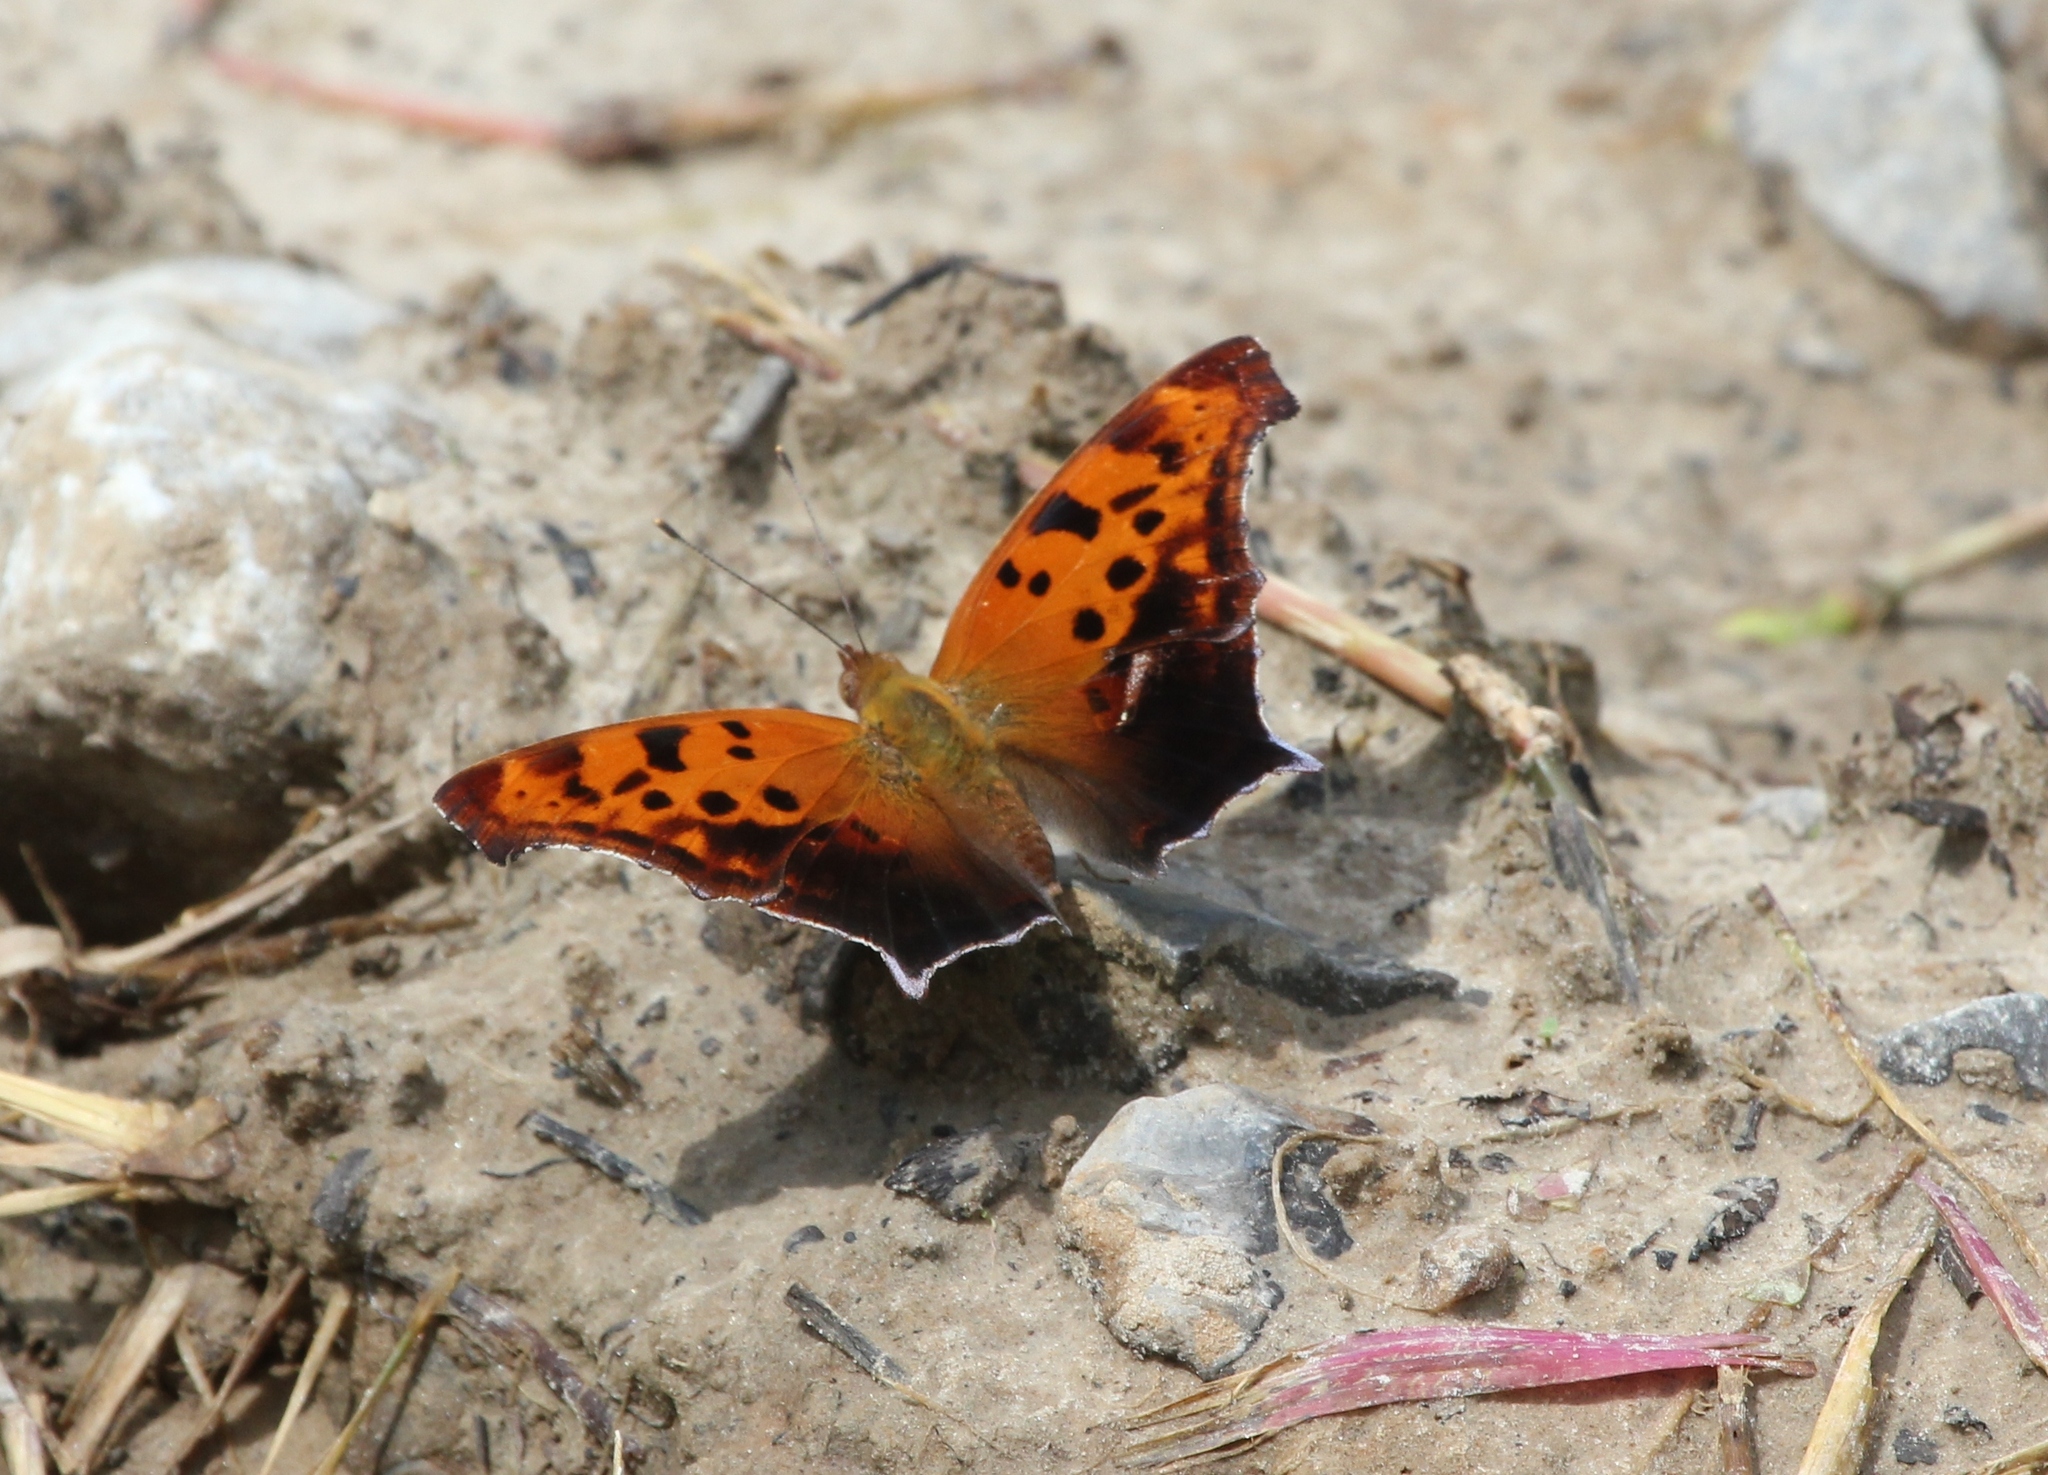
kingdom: Animalia
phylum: Arthropoda
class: Insecta
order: Lepidoptera
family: Nymphalidae
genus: Polygonia
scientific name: Polygonia interrogationis
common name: Question mark
